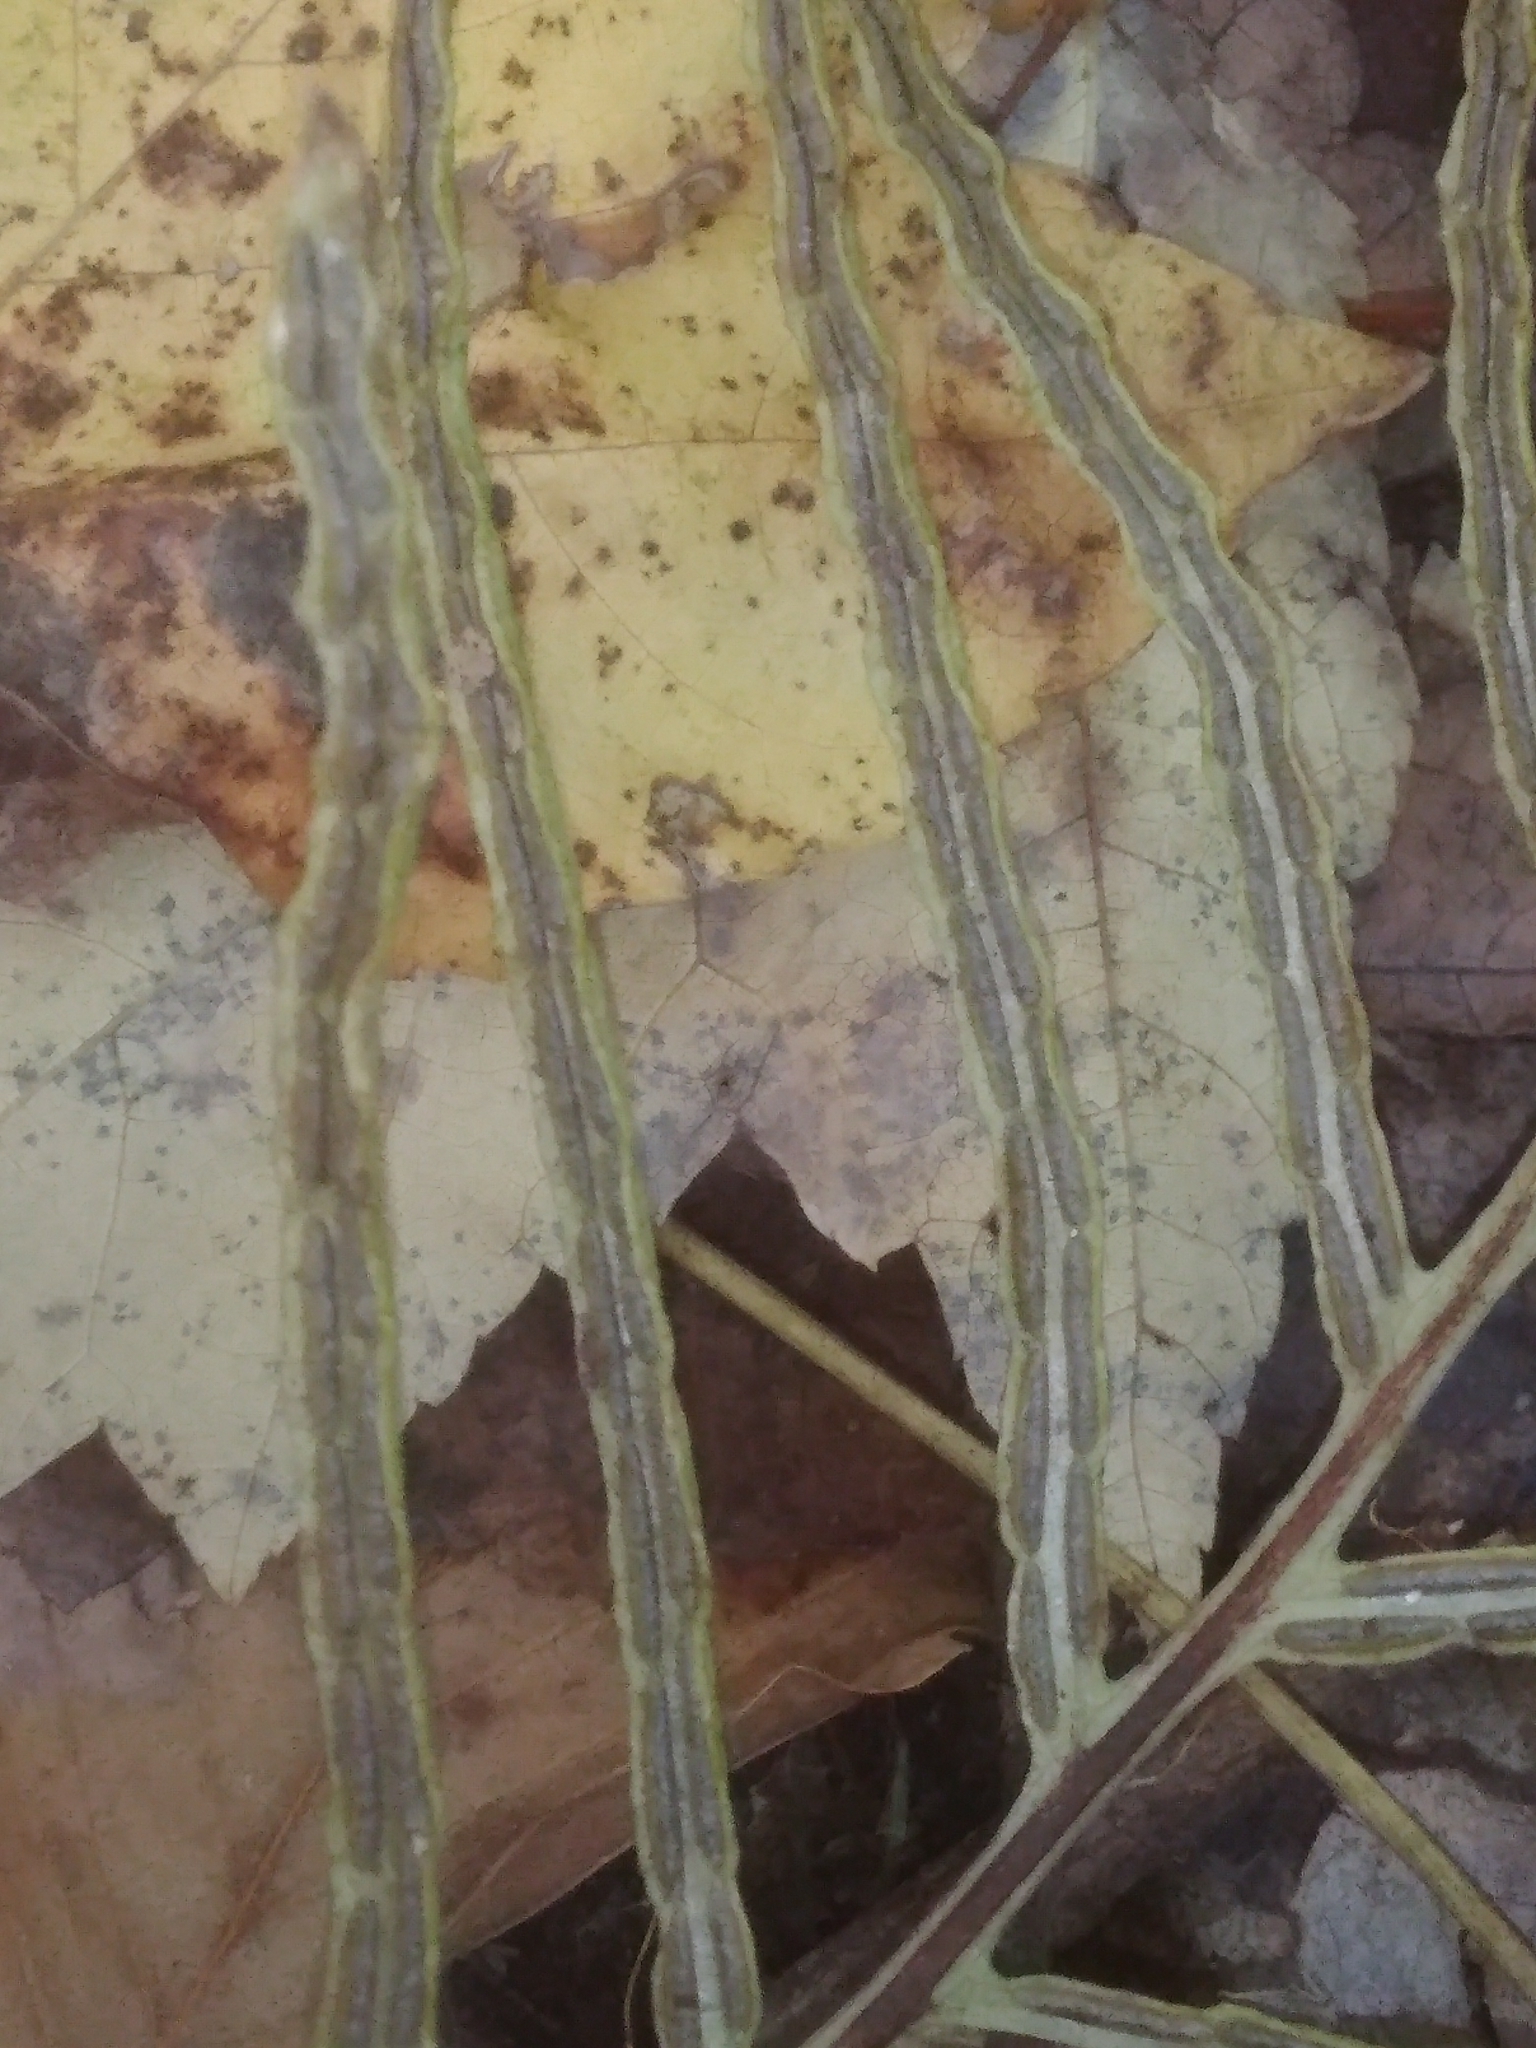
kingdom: Plantae
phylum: Tracheophyta
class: Polypodiopsida
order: Polypodiales
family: Blechnaceae
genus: Lorinseria
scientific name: Lorinseria areolata
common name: Dwarf chain fern
